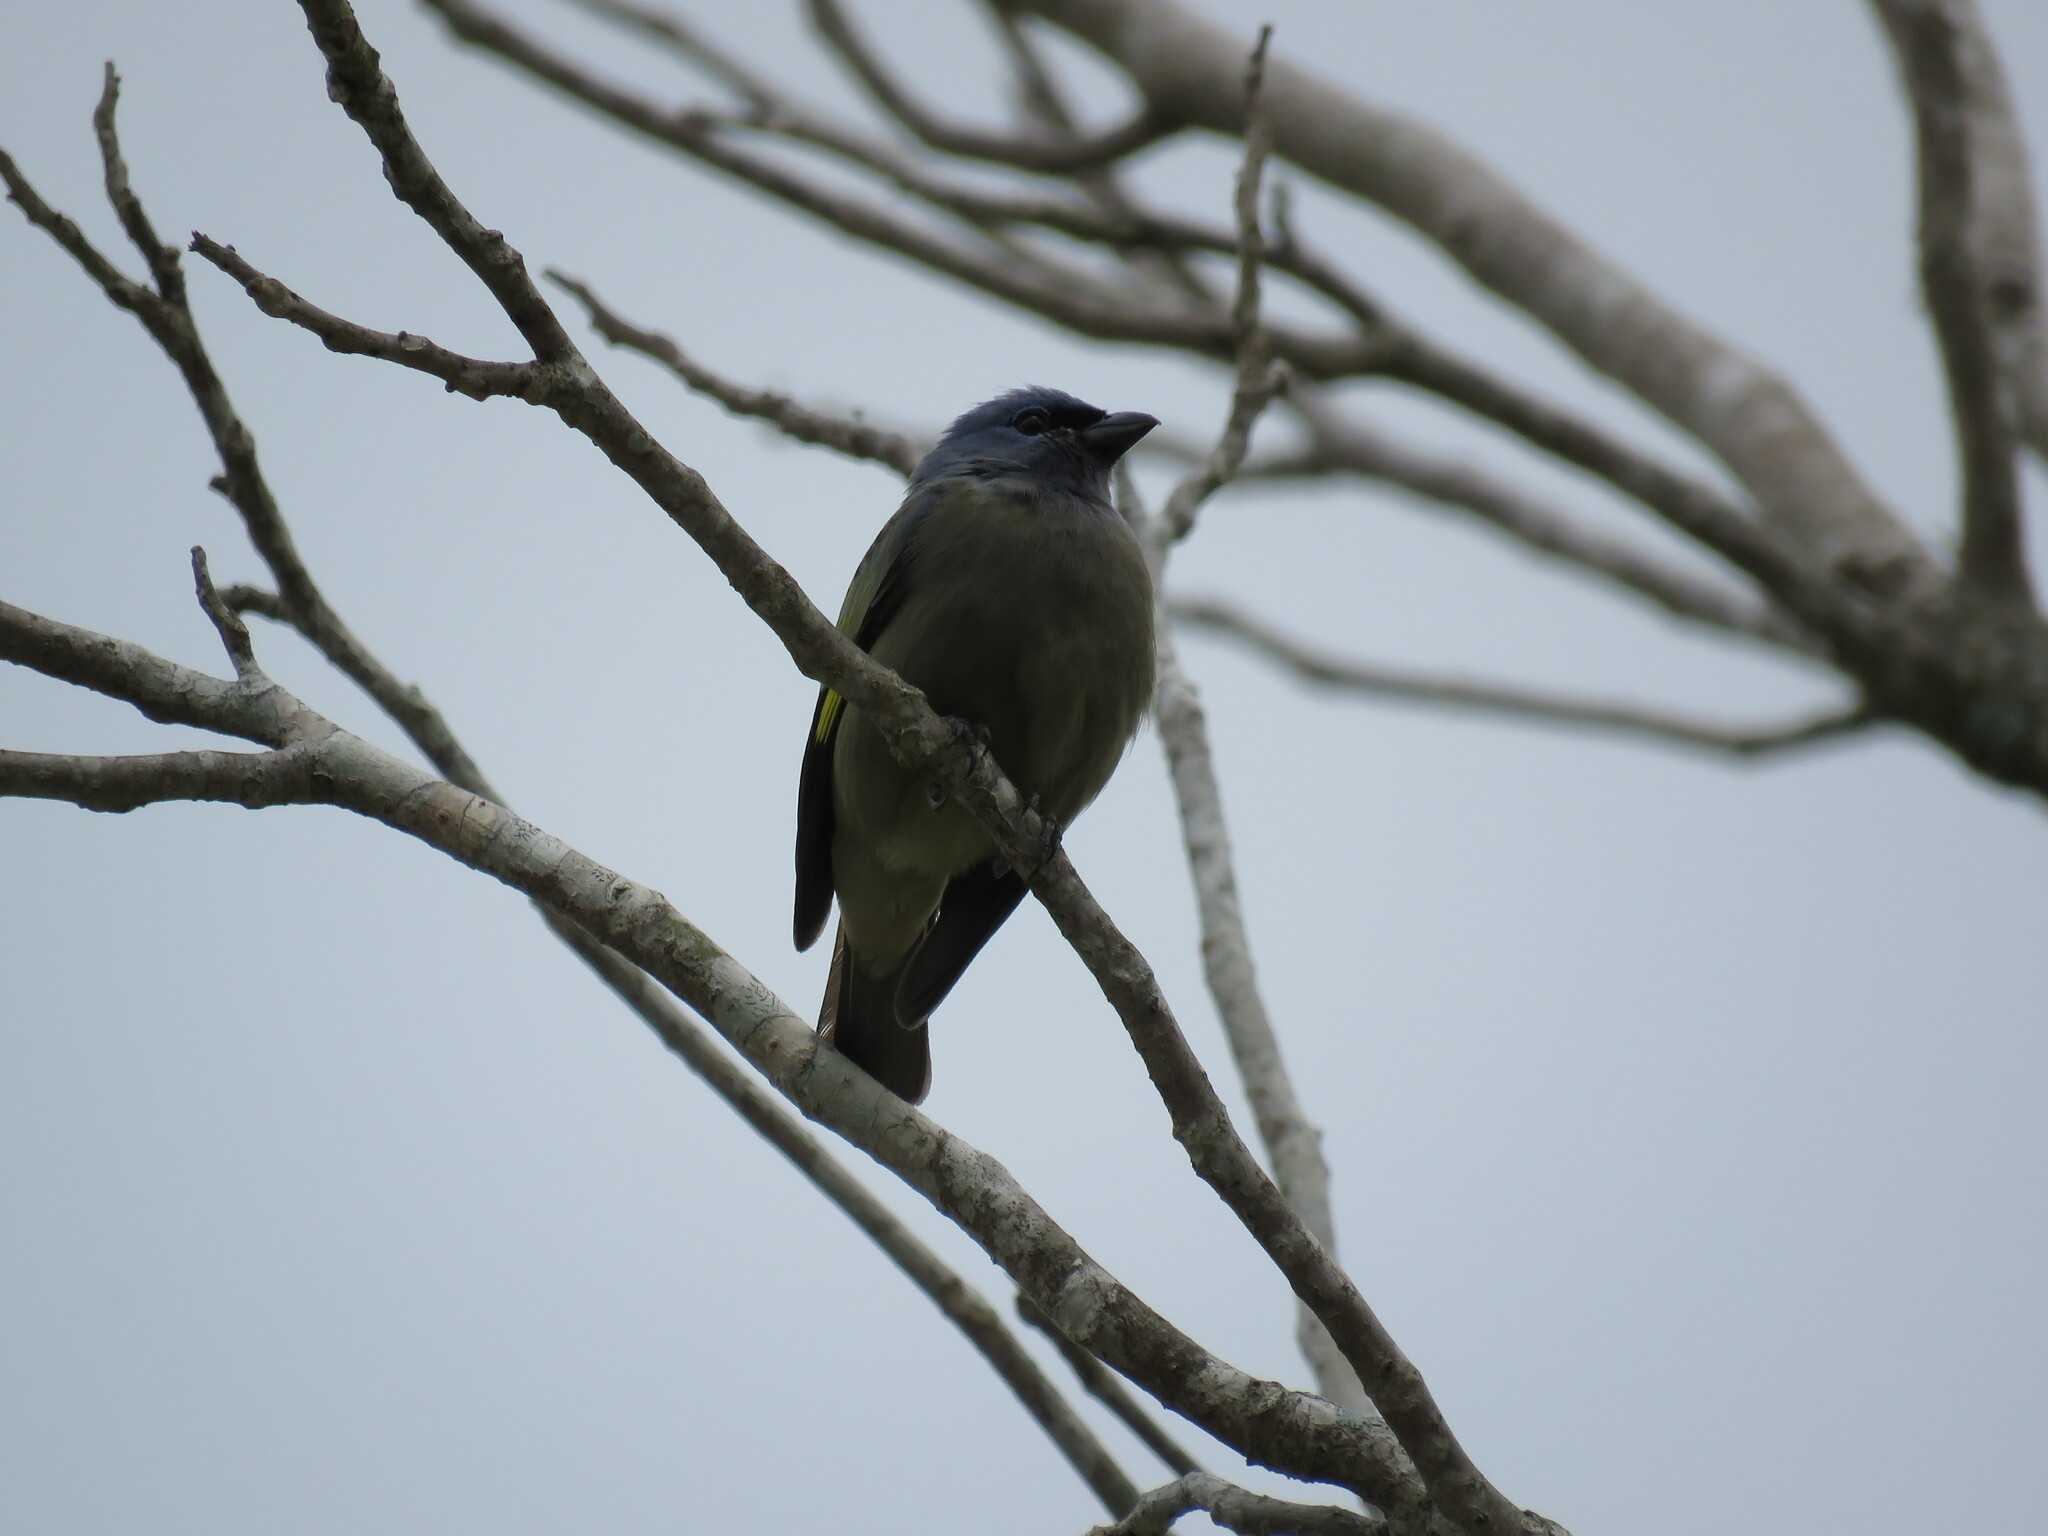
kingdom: Animalia
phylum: Chordata
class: Aves
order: Passeriformes
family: Thraupidae
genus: Thraupis
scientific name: Thraupis abbas
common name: Yellow-winged tanager
